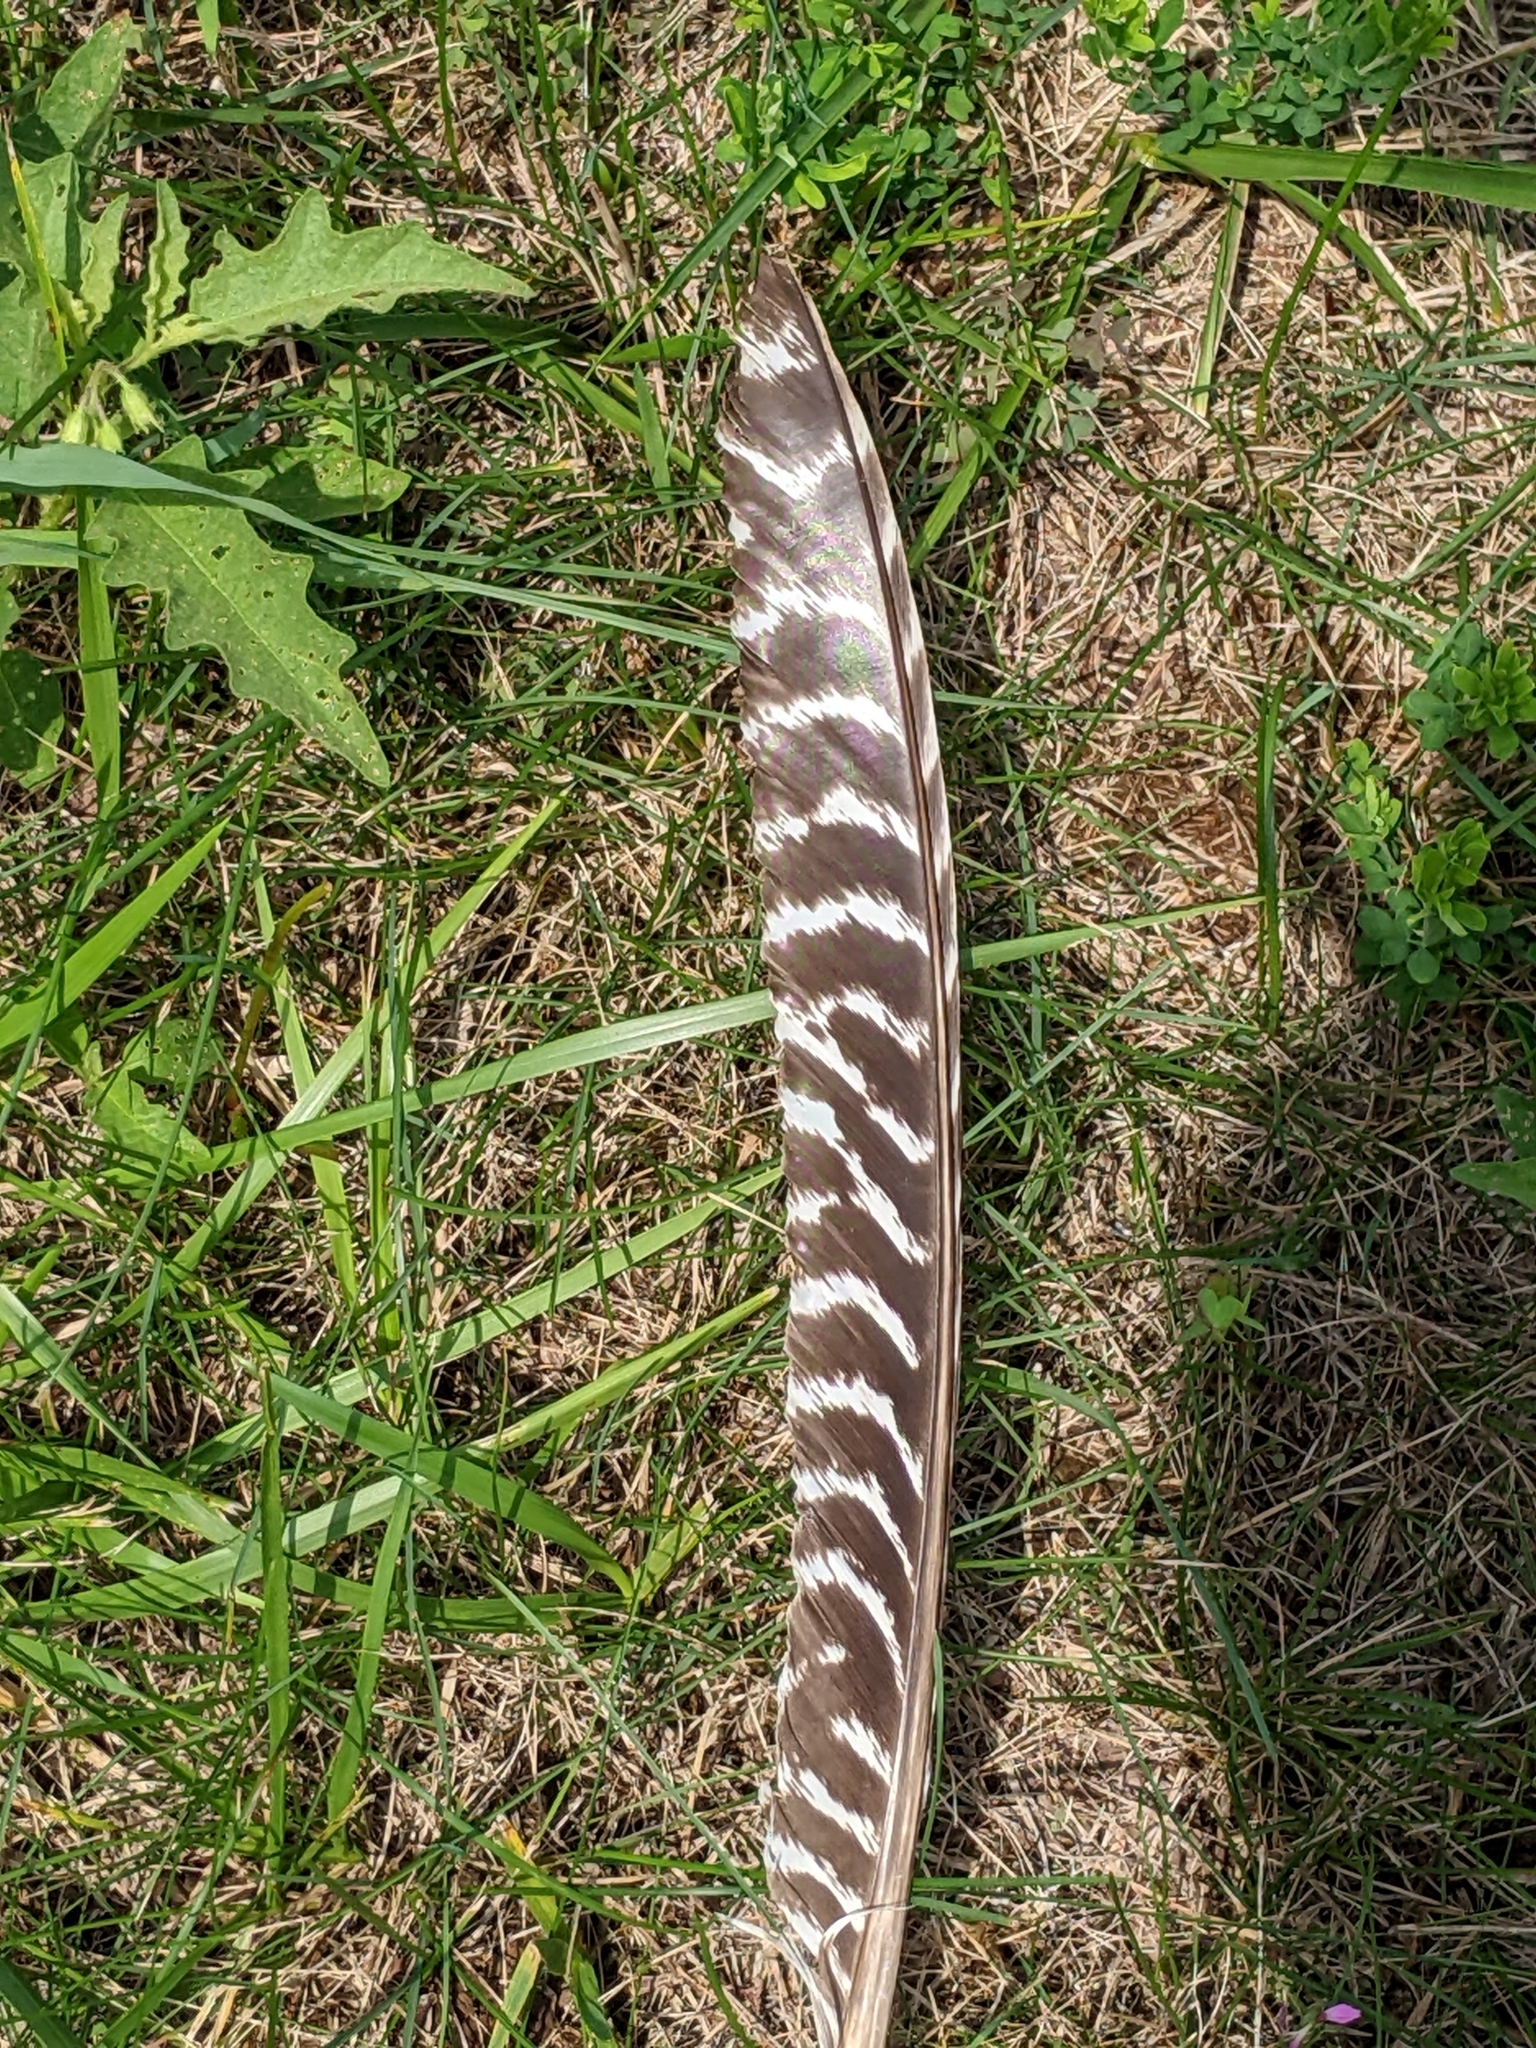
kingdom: Animalia
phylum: Chordata
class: Aves
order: Galliformes
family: Phasianidae
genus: Meleagris
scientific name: Meleagris gallopavo
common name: Wild turkey
